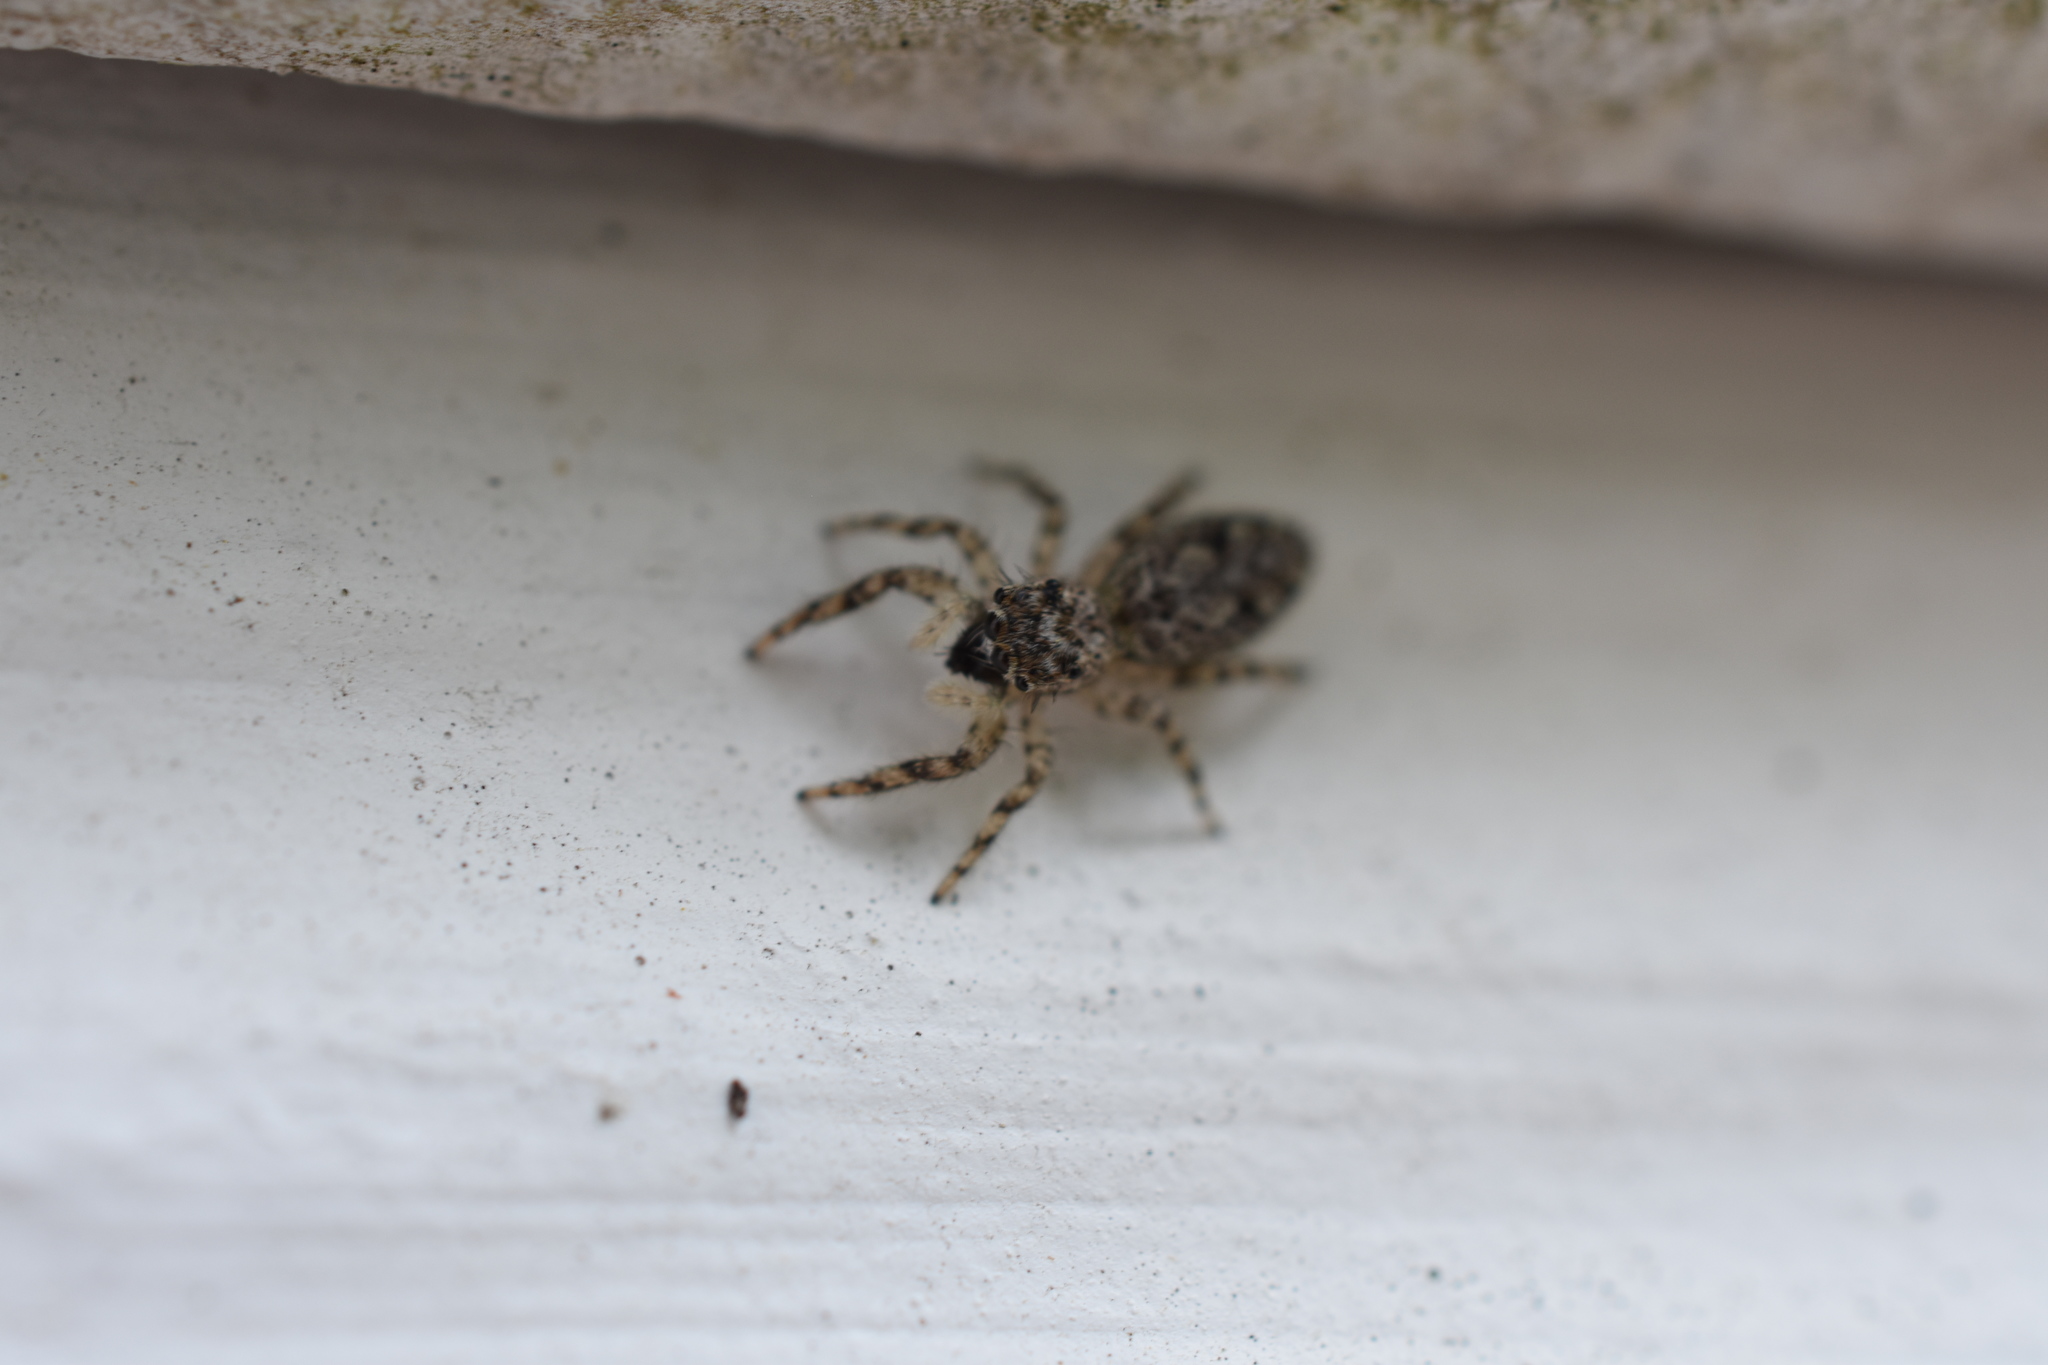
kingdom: Animalia
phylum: Arthropoda
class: Arachnida
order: Araneae
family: Salticidae
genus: Platycryptus
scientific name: Platycryptus undatus
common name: Tan jumping spider
